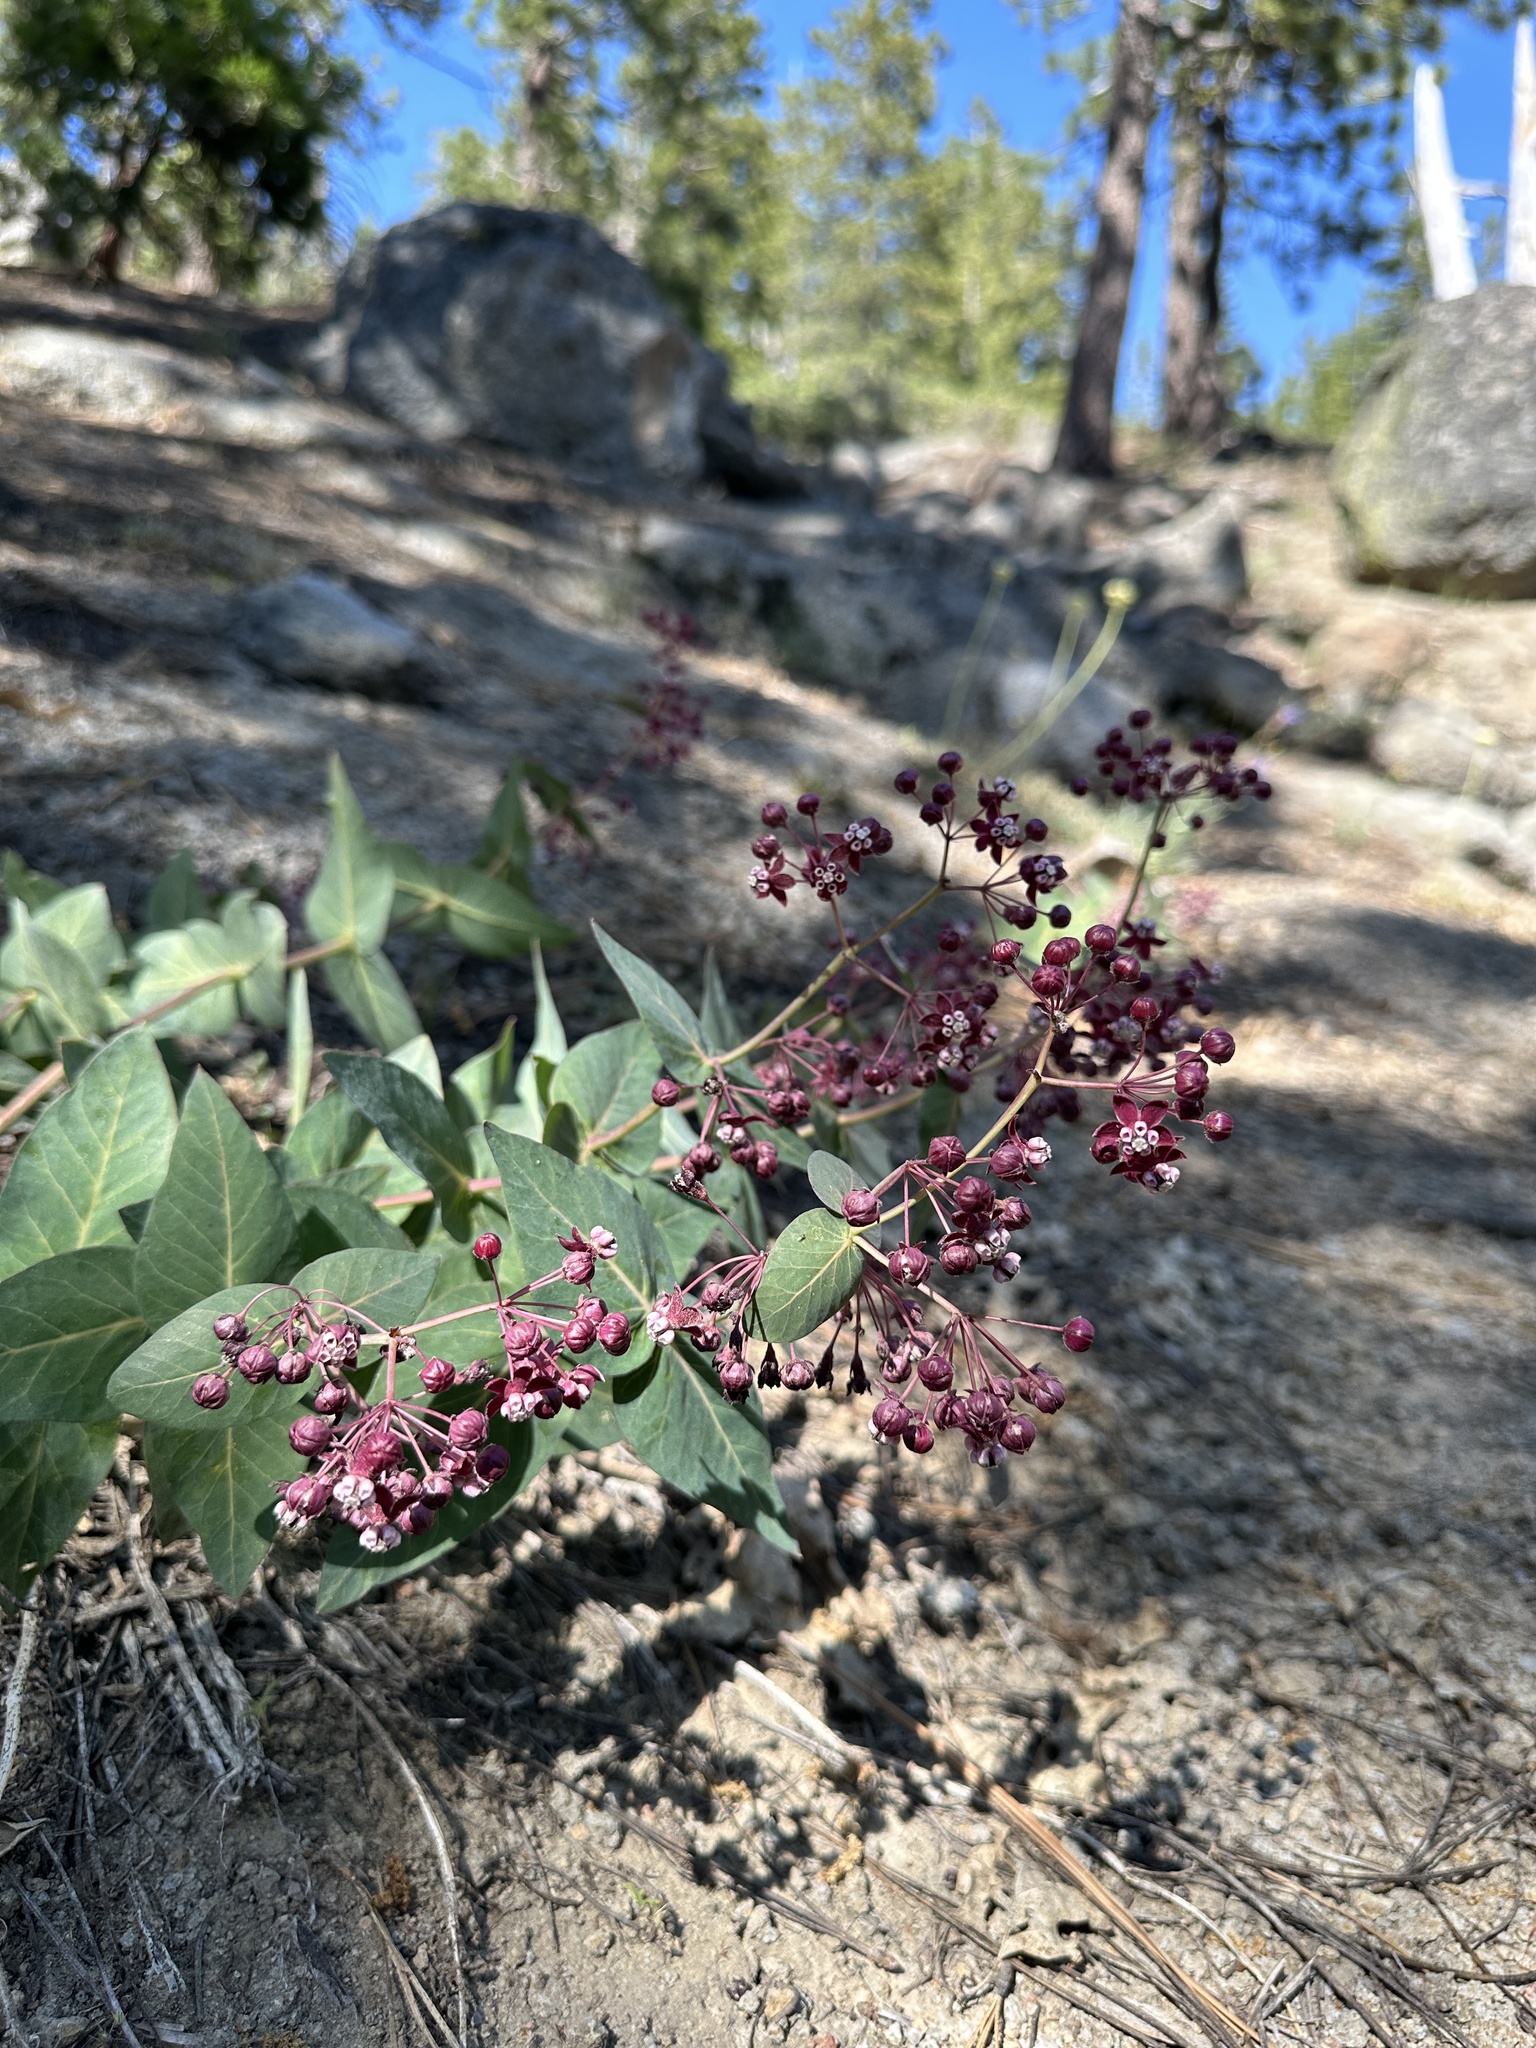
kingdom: Plantae
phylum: Tracheophyta
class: Magnoliopsida
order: Gentianales
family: Apocynaceae
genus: Asclepias
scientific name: Asclepias cordifolia
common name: Purple milkweed
